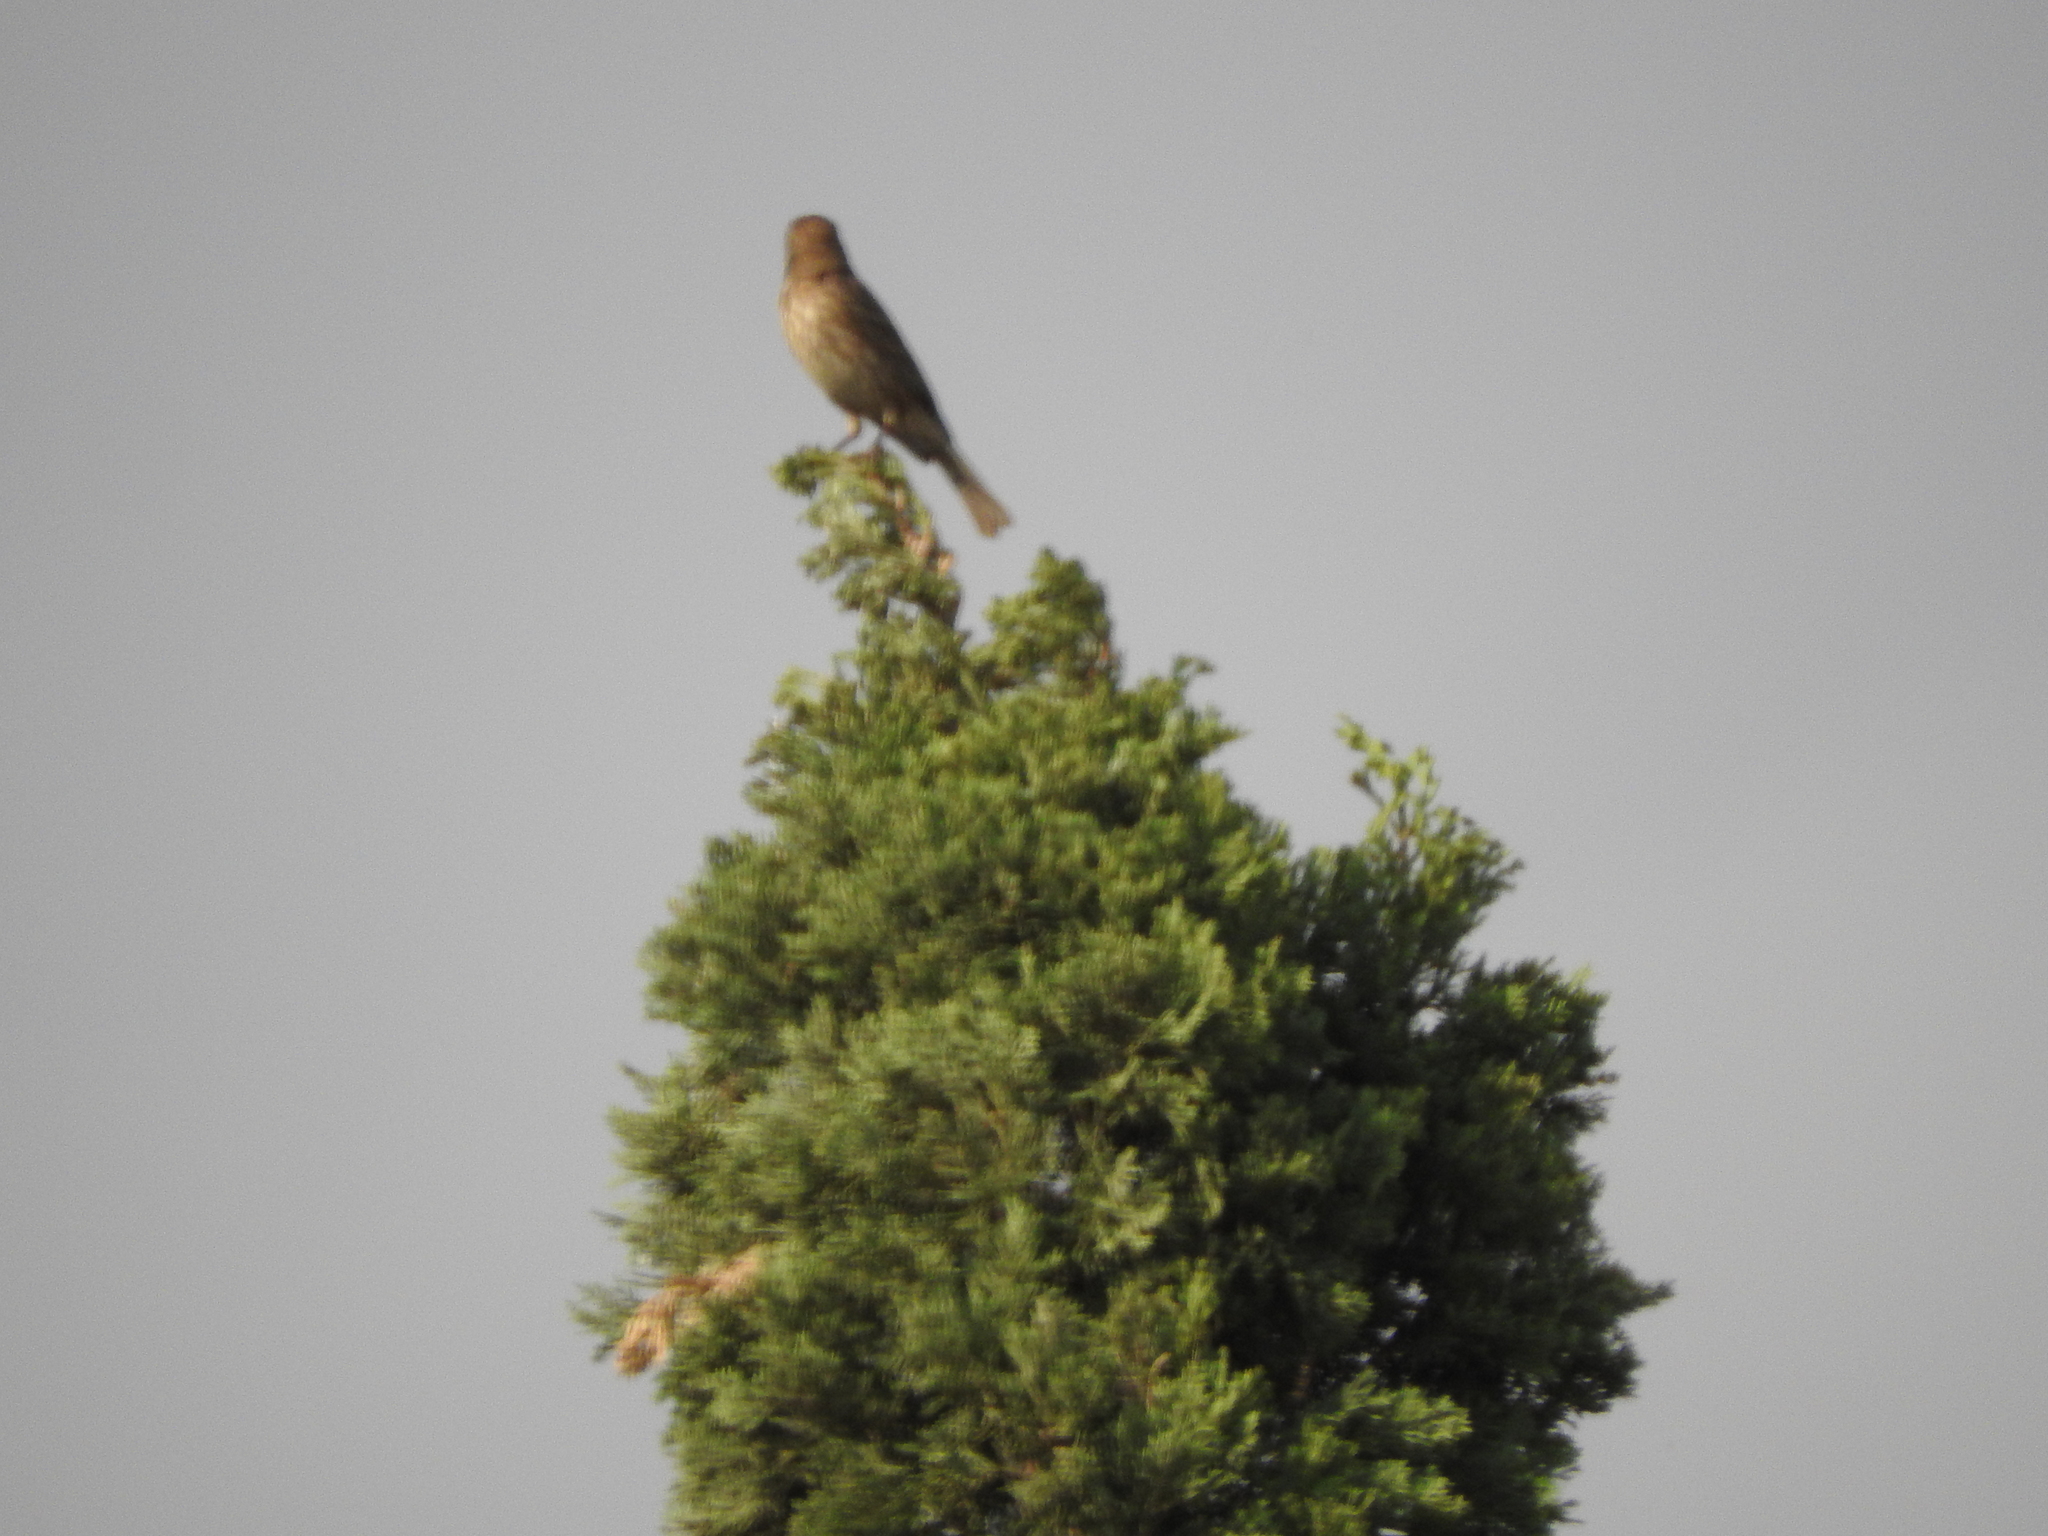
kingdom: Animalia
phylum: Chordata
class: Aves
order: Passeriformes
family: Fringillidae
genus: Haemorhous
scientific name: Haemorhous mexicanus
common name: House finch
